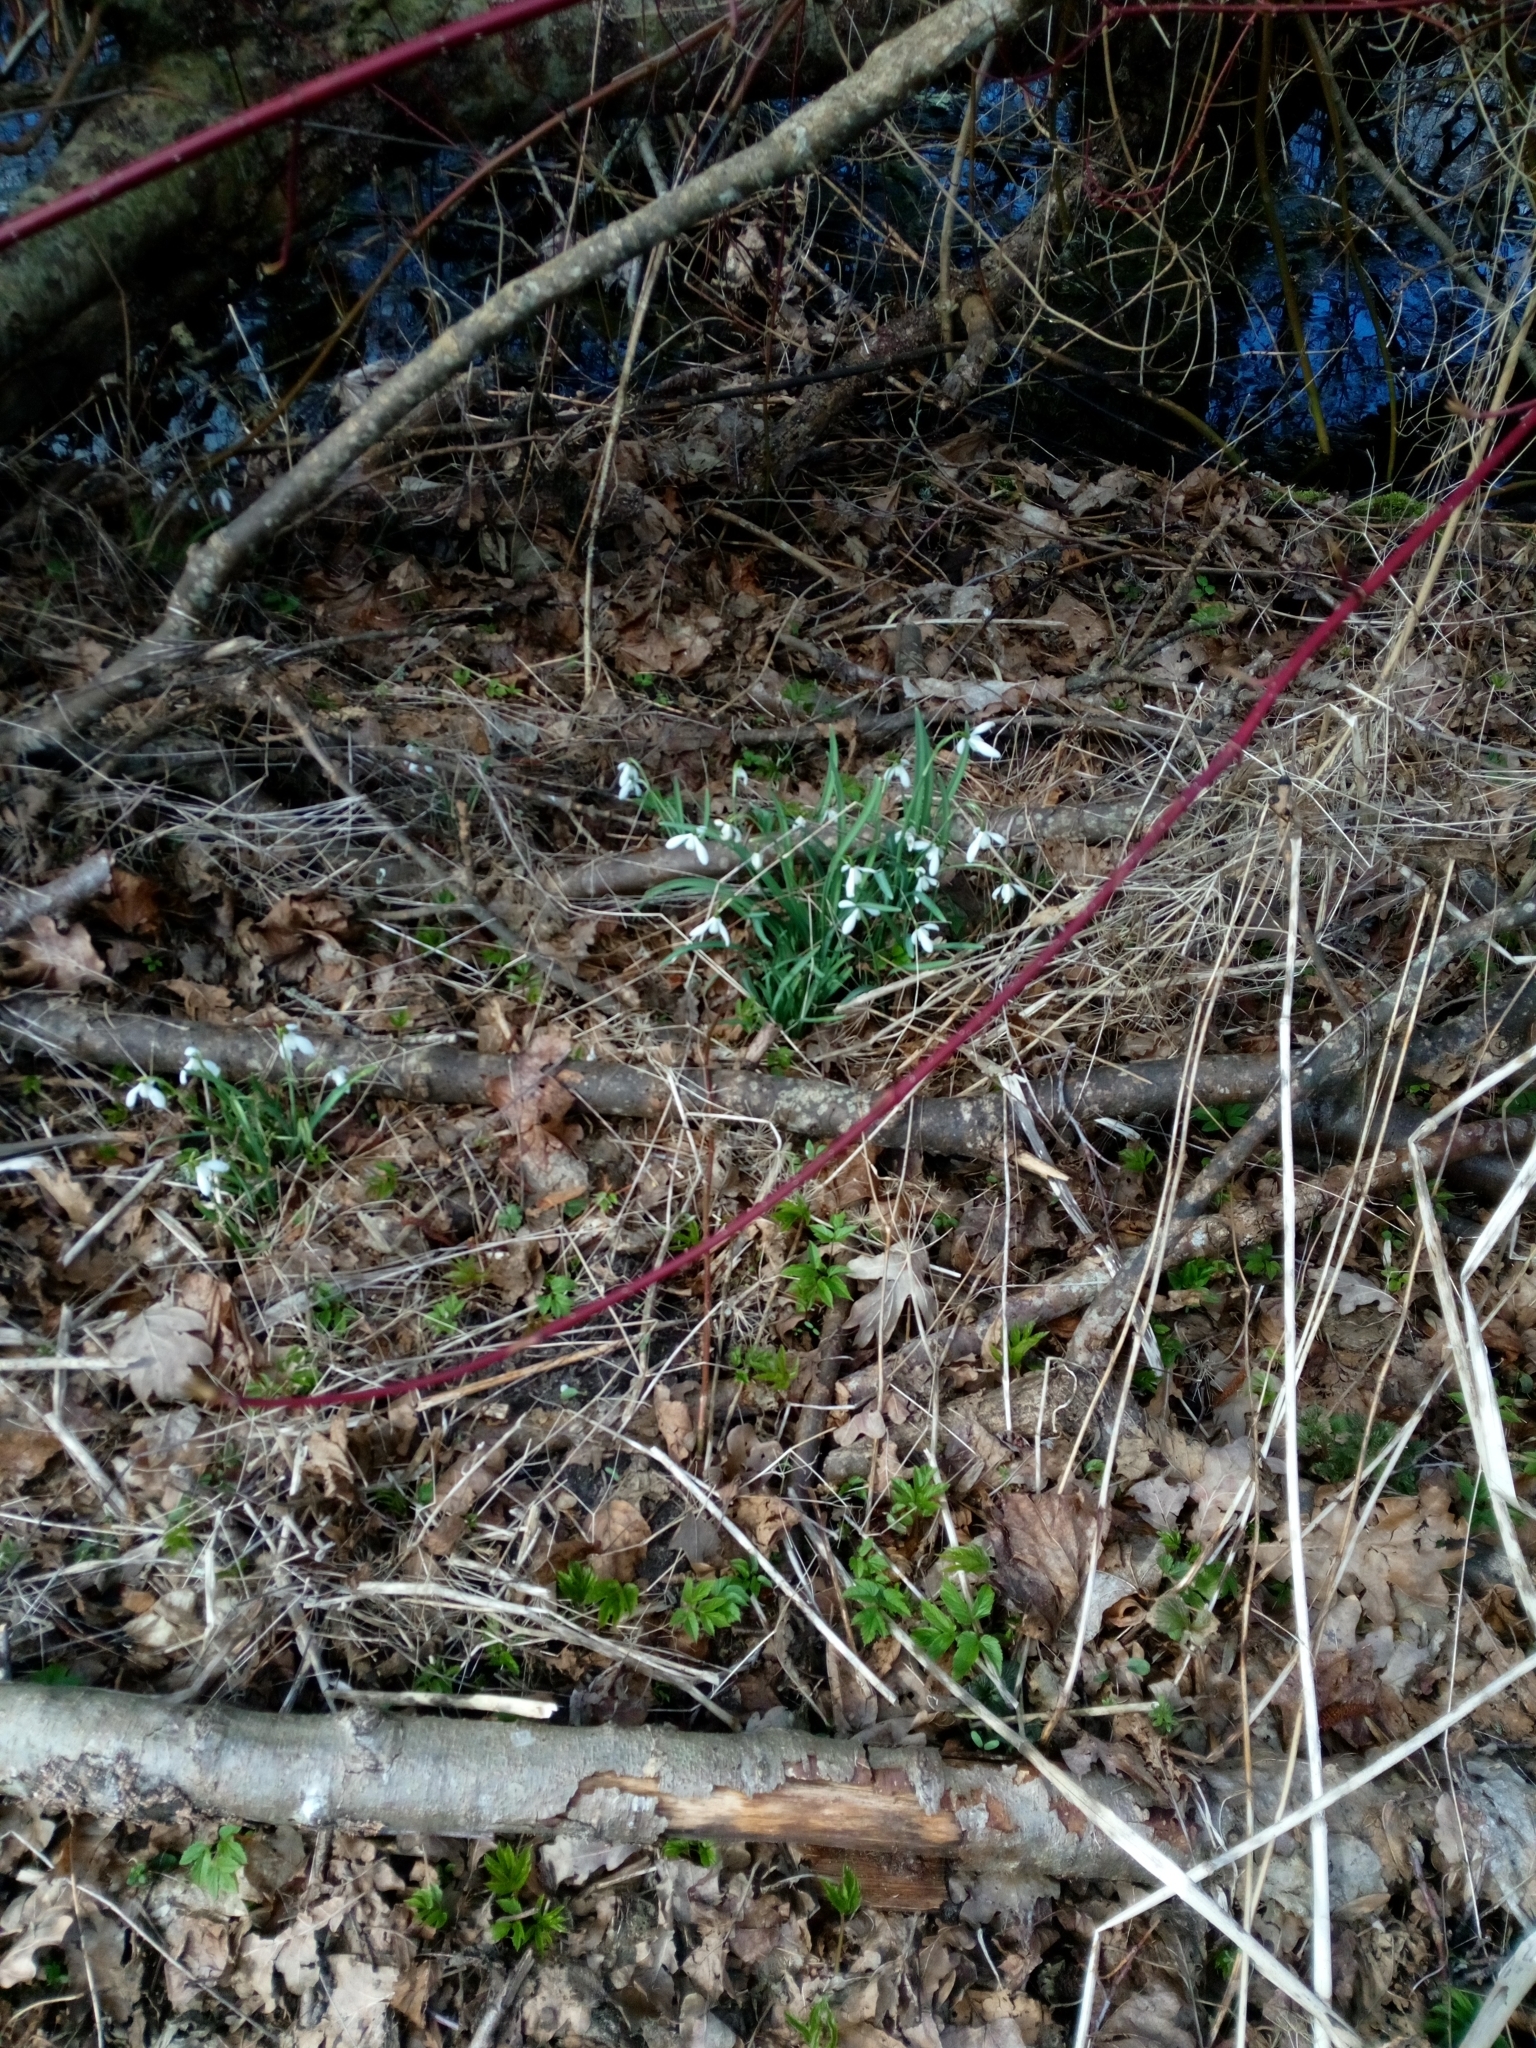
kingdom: Plantae
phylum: Tracheophyta
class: Liliopsida
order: Asparagales
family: Amaryllidaceae
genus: Galanthus
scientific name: Galanthus nivalis
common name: Snowdrop
